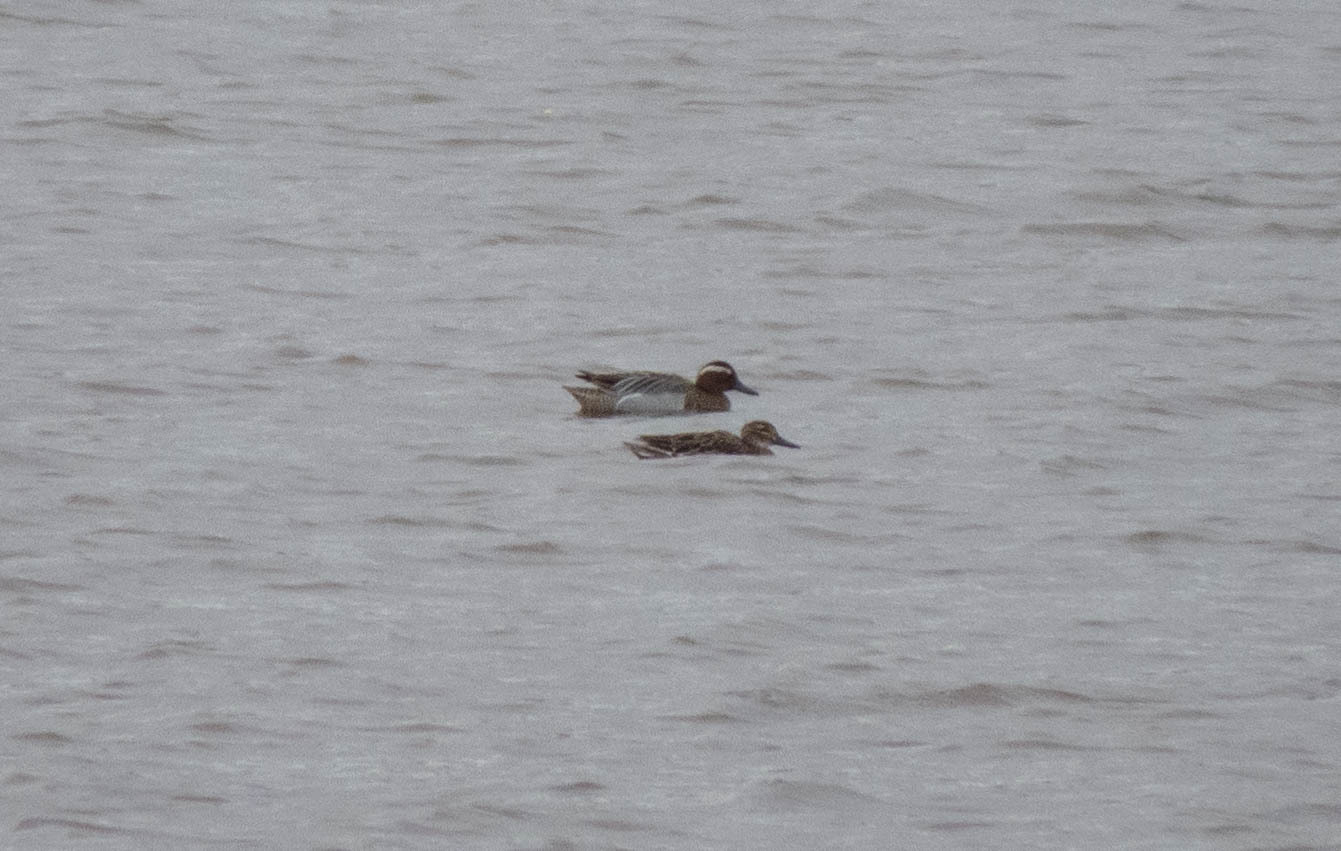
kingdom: Animalia
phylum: Chordata
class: Aves
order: Anseriformes
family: Anatidae
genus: Spatula
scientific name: Spatula querquedula
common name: Garganey
